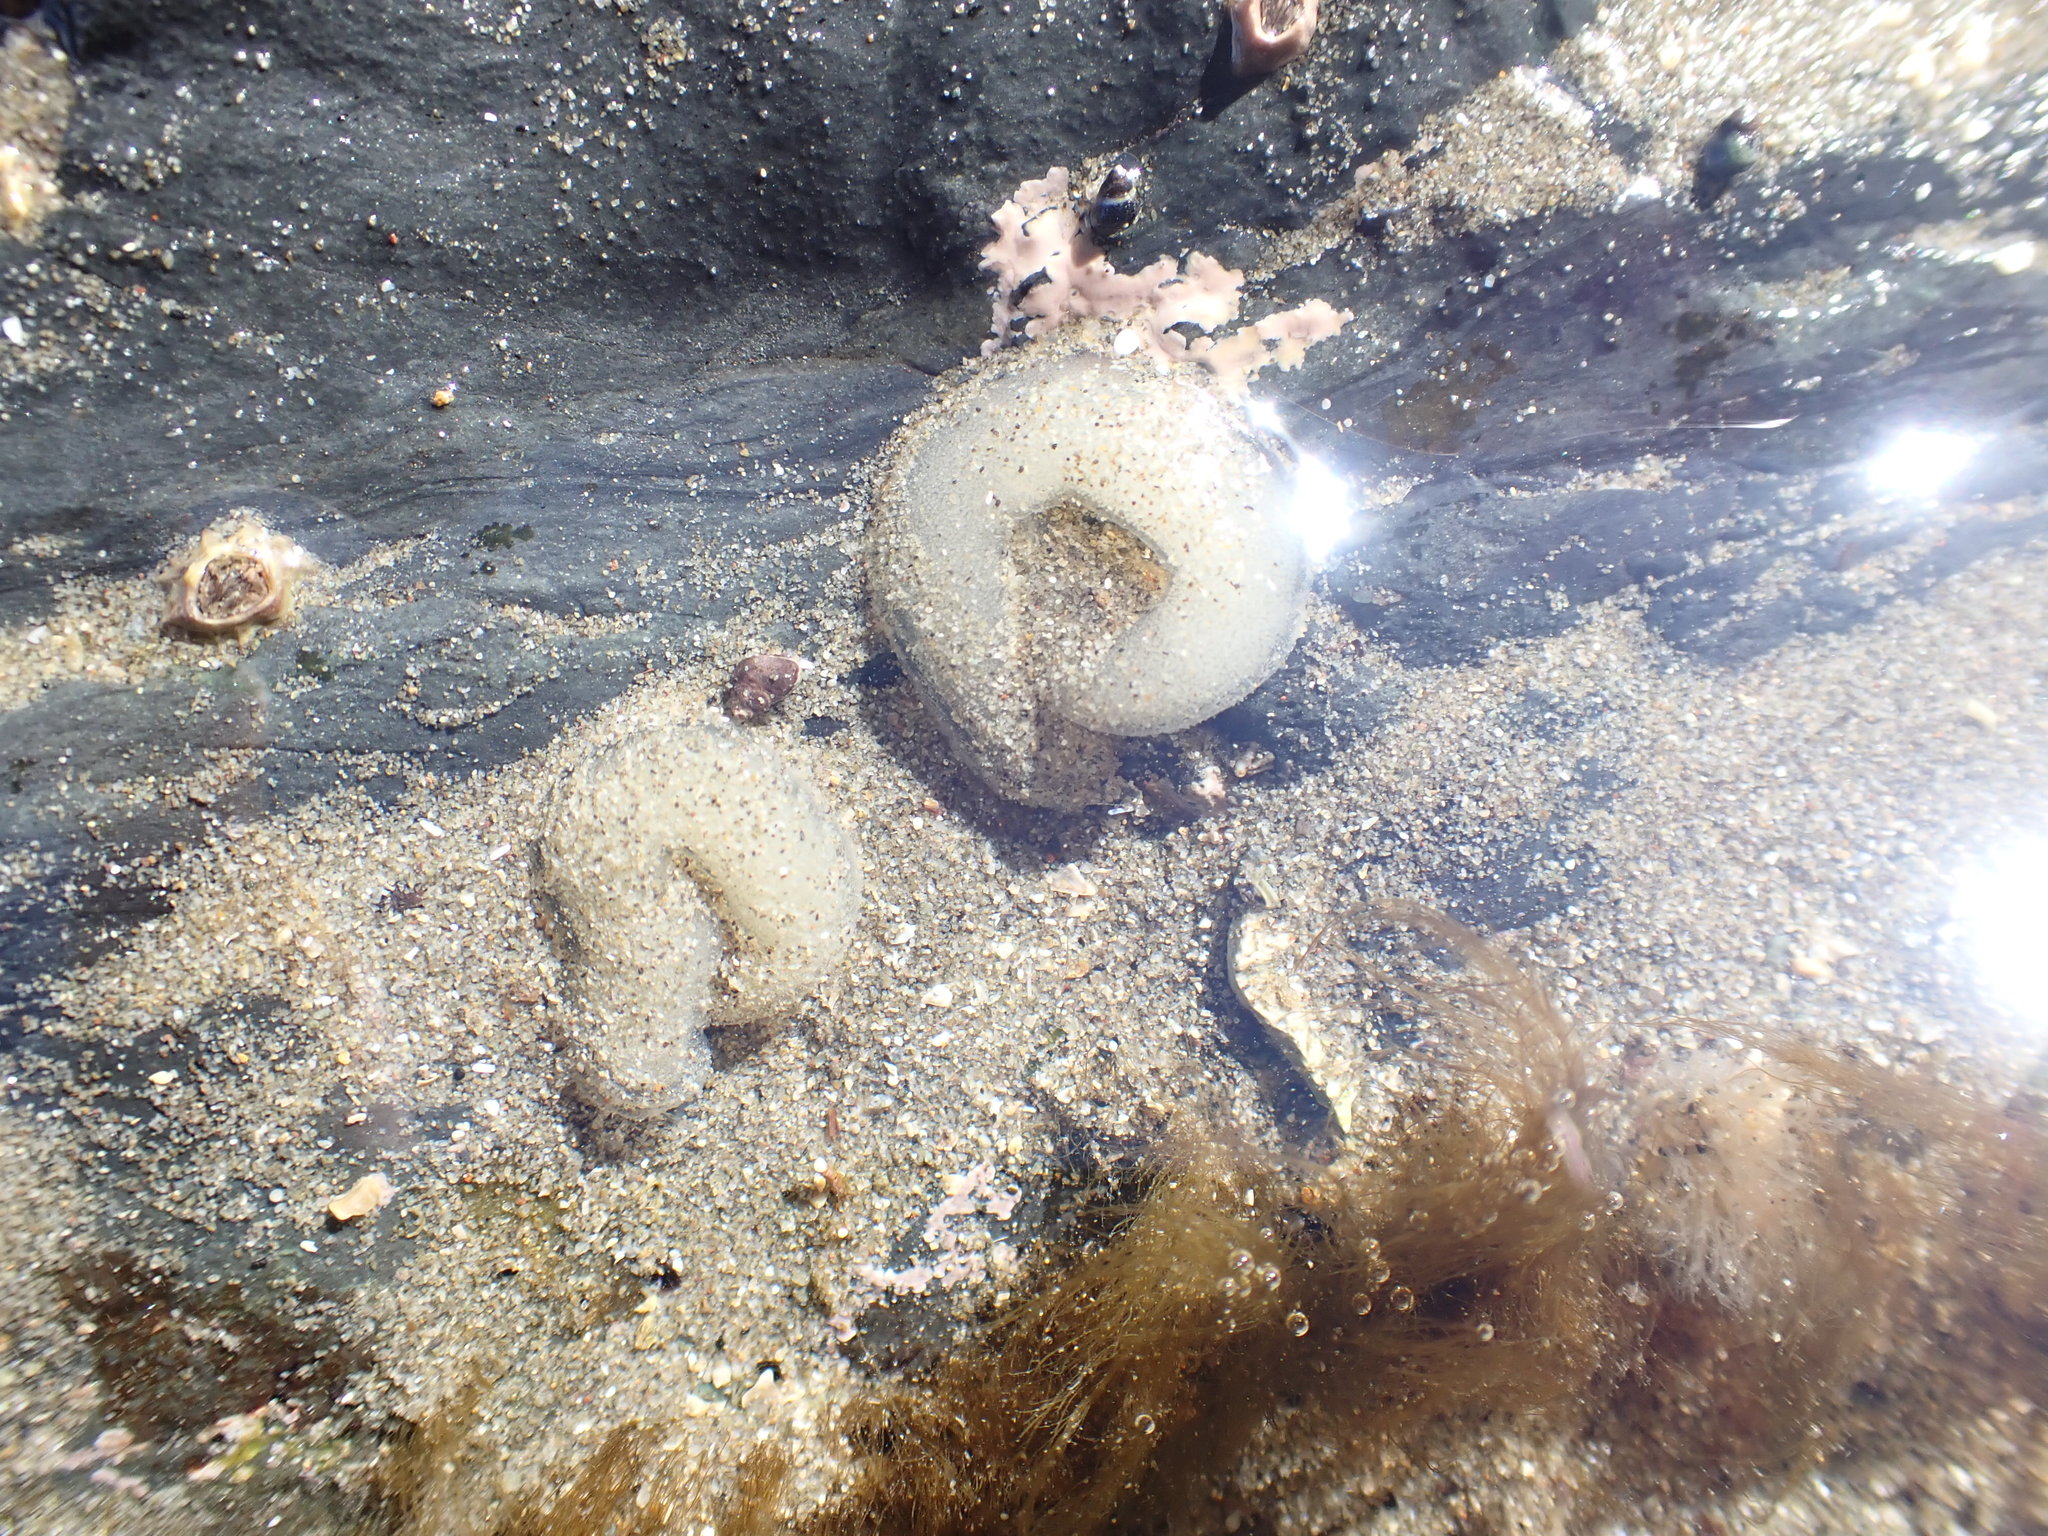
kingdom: Animalia
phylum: Mollusca
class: Gastropoda
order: Siphonariida
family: Siphonariidae
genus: Siphonaria
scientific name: Siphonaria australis
